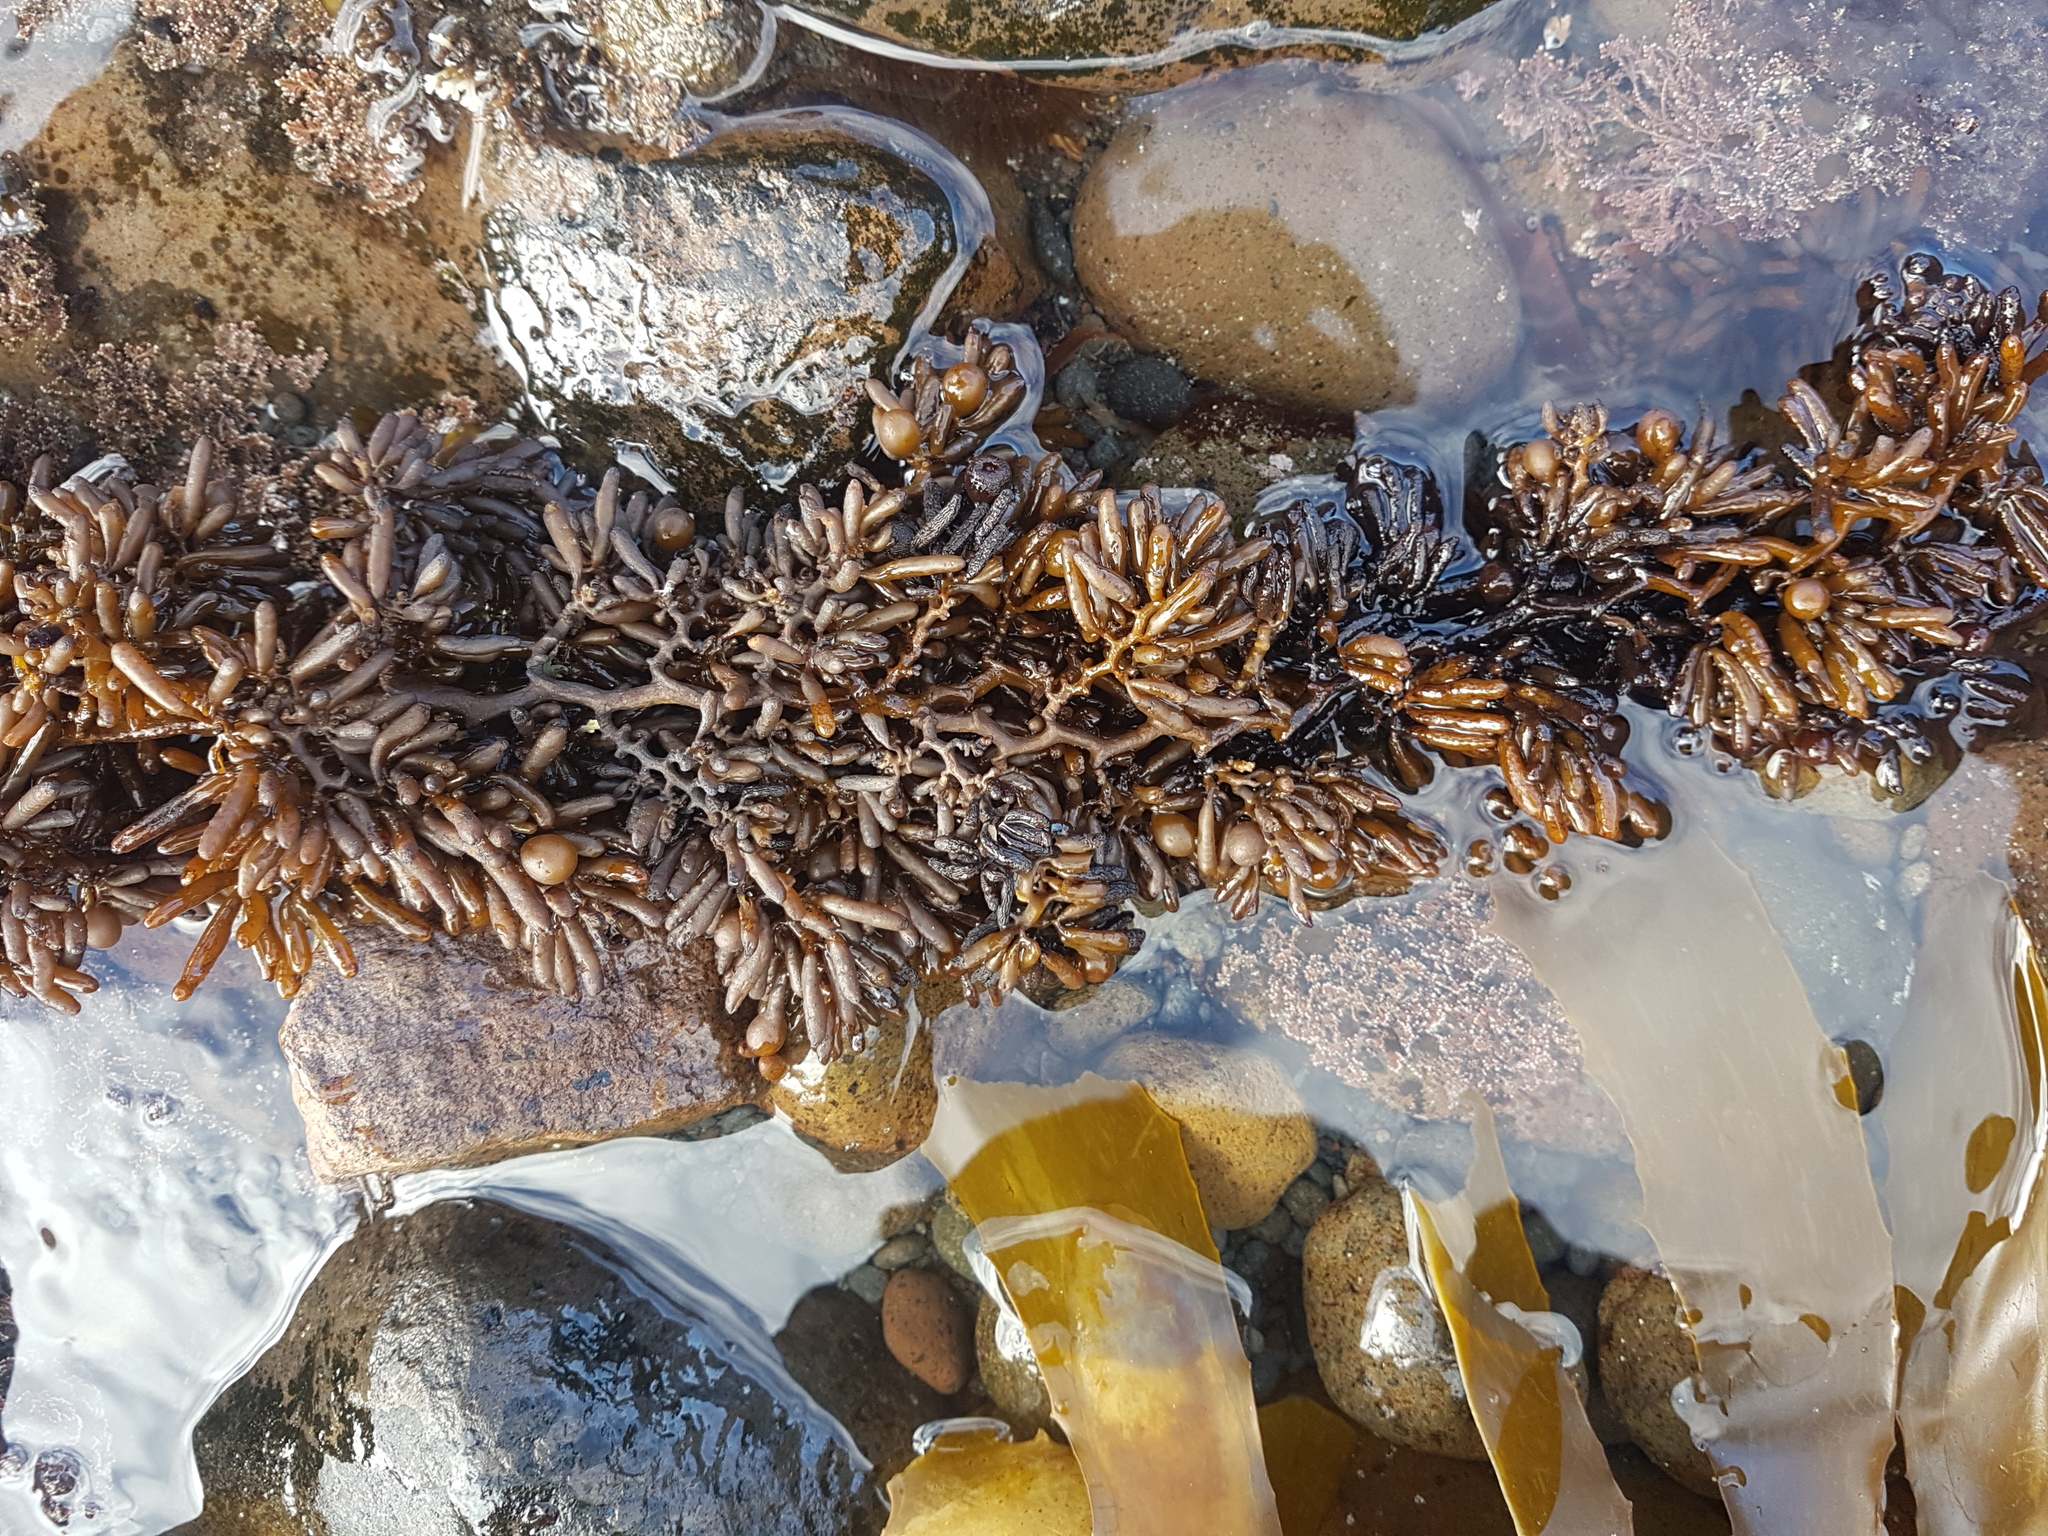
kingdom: Chromista
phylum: Ochrophyta
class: Phaeophyceae
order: Fucales
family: Sargassaceae
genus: Cystophora
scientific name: Cystophora torulosa
